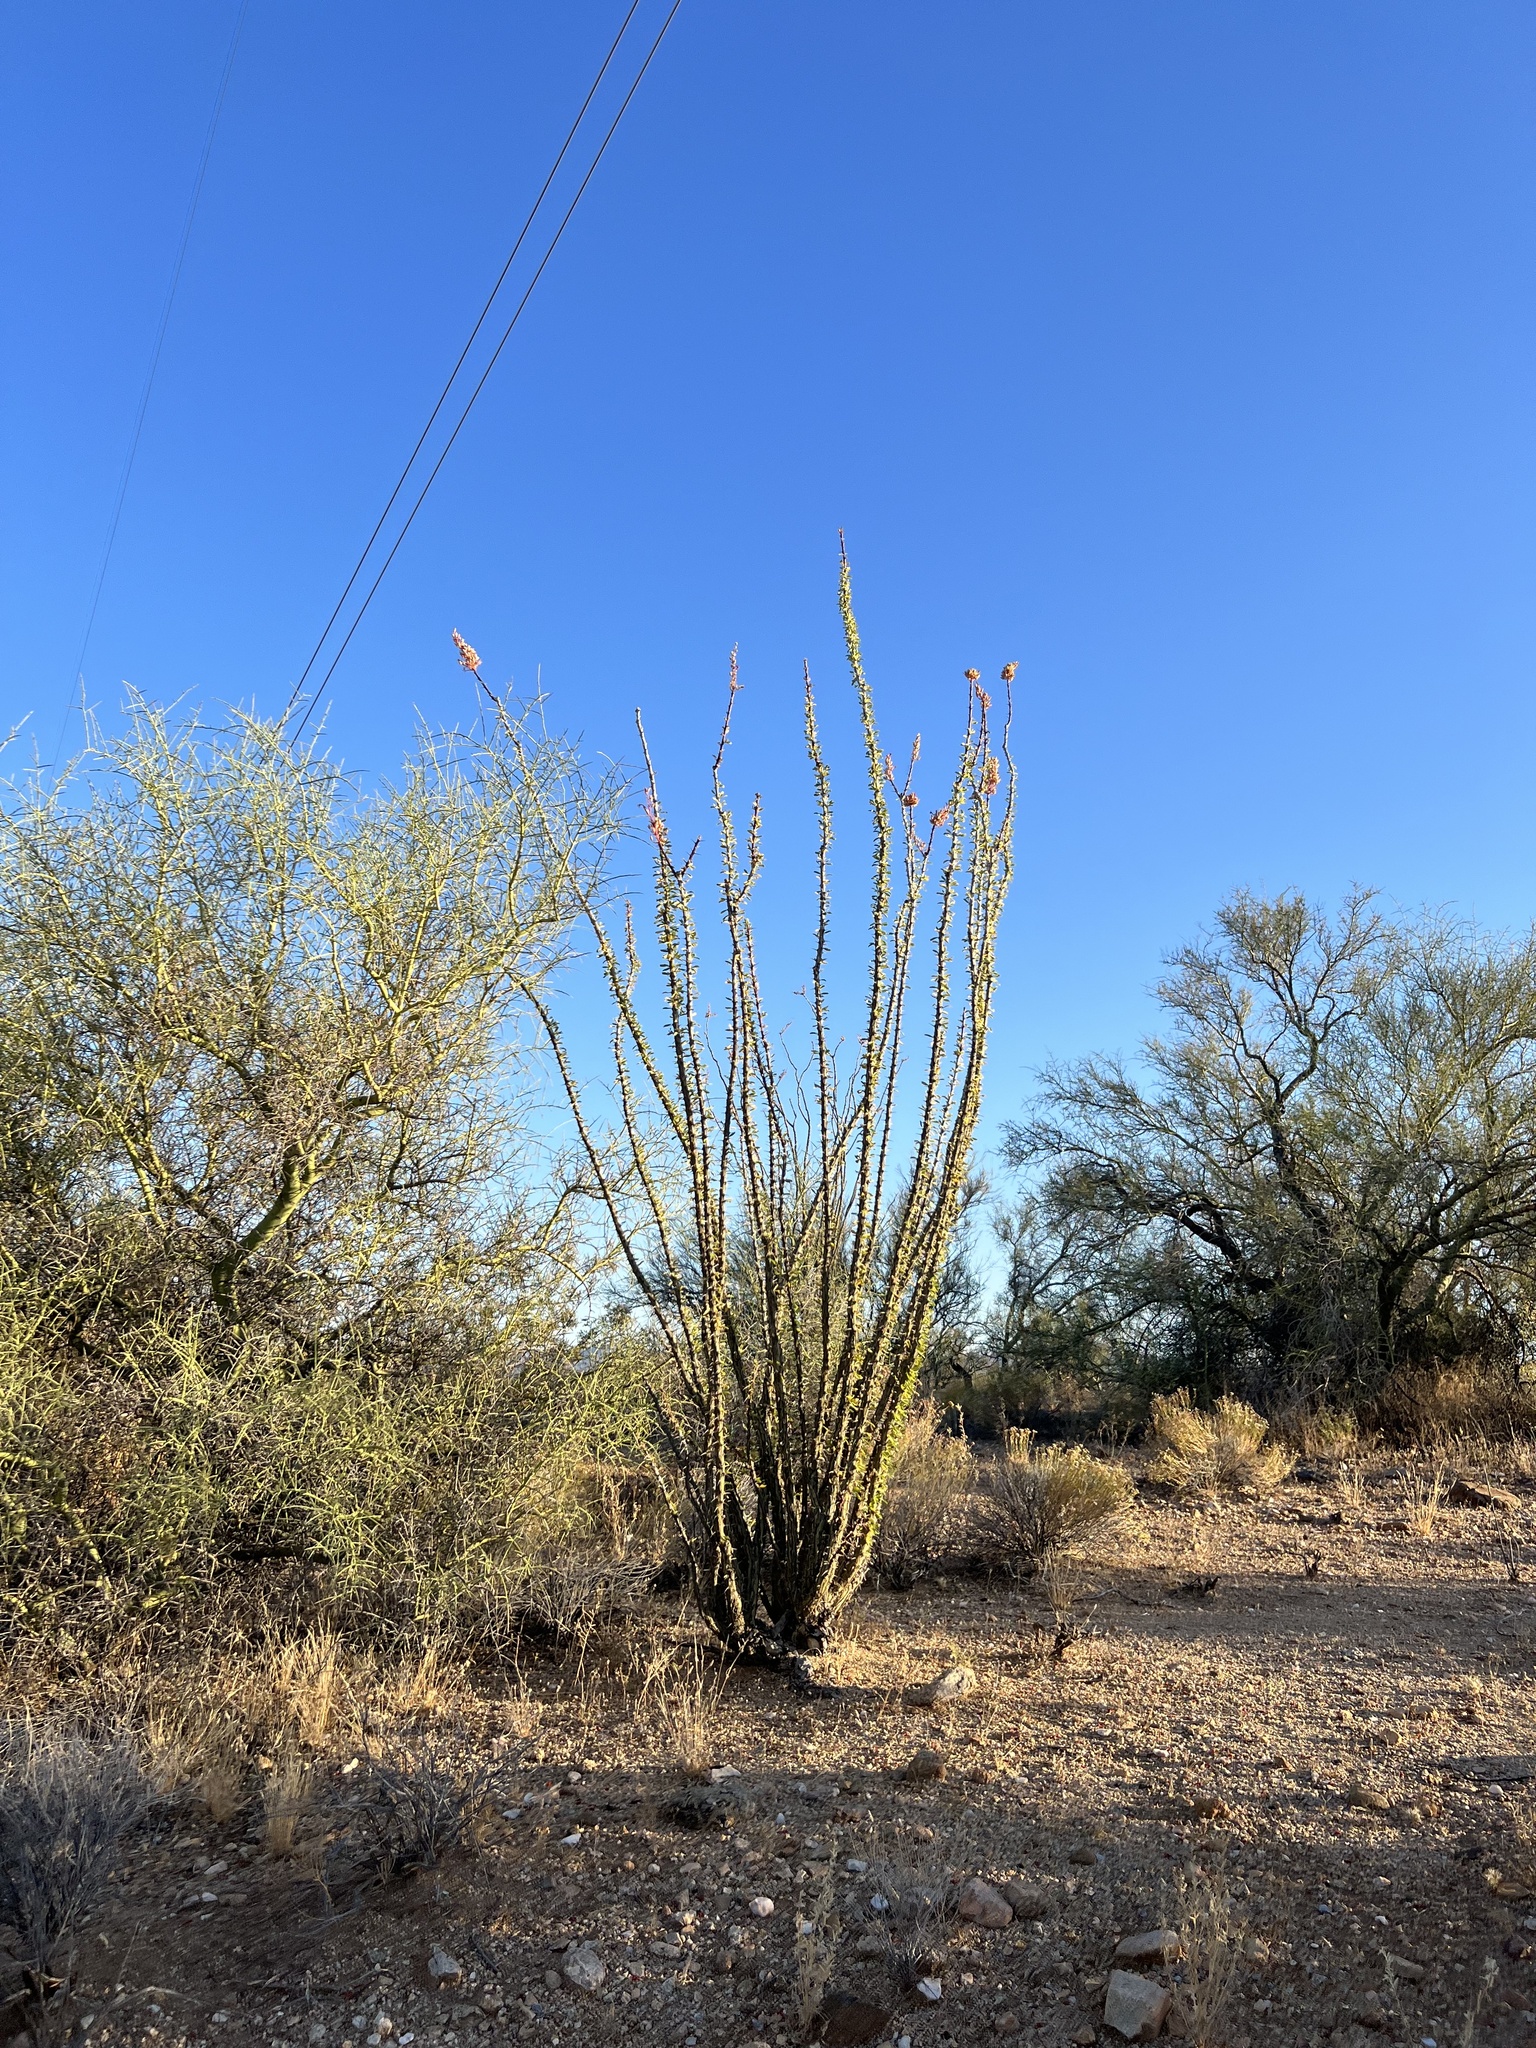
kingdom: Plantae
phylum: Tracheophyta
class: Magnoliopsida
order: Ericales
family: Fouquieriaceae
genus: Fouquieria
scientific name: Fouquieria splendens
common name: Vine-cactus
